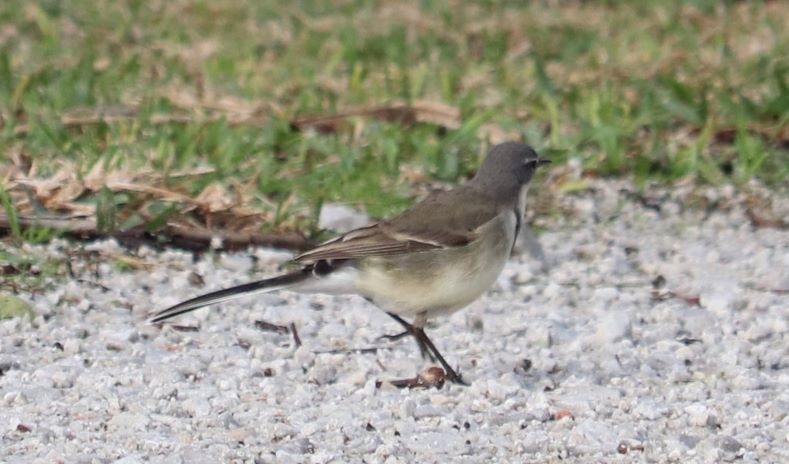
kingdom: Animalia
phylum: Chordata
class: Aves
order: Passeriformes
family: Motacillidae
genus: Motacilla
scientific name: Motacilla capensis
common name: Cape wagtail
